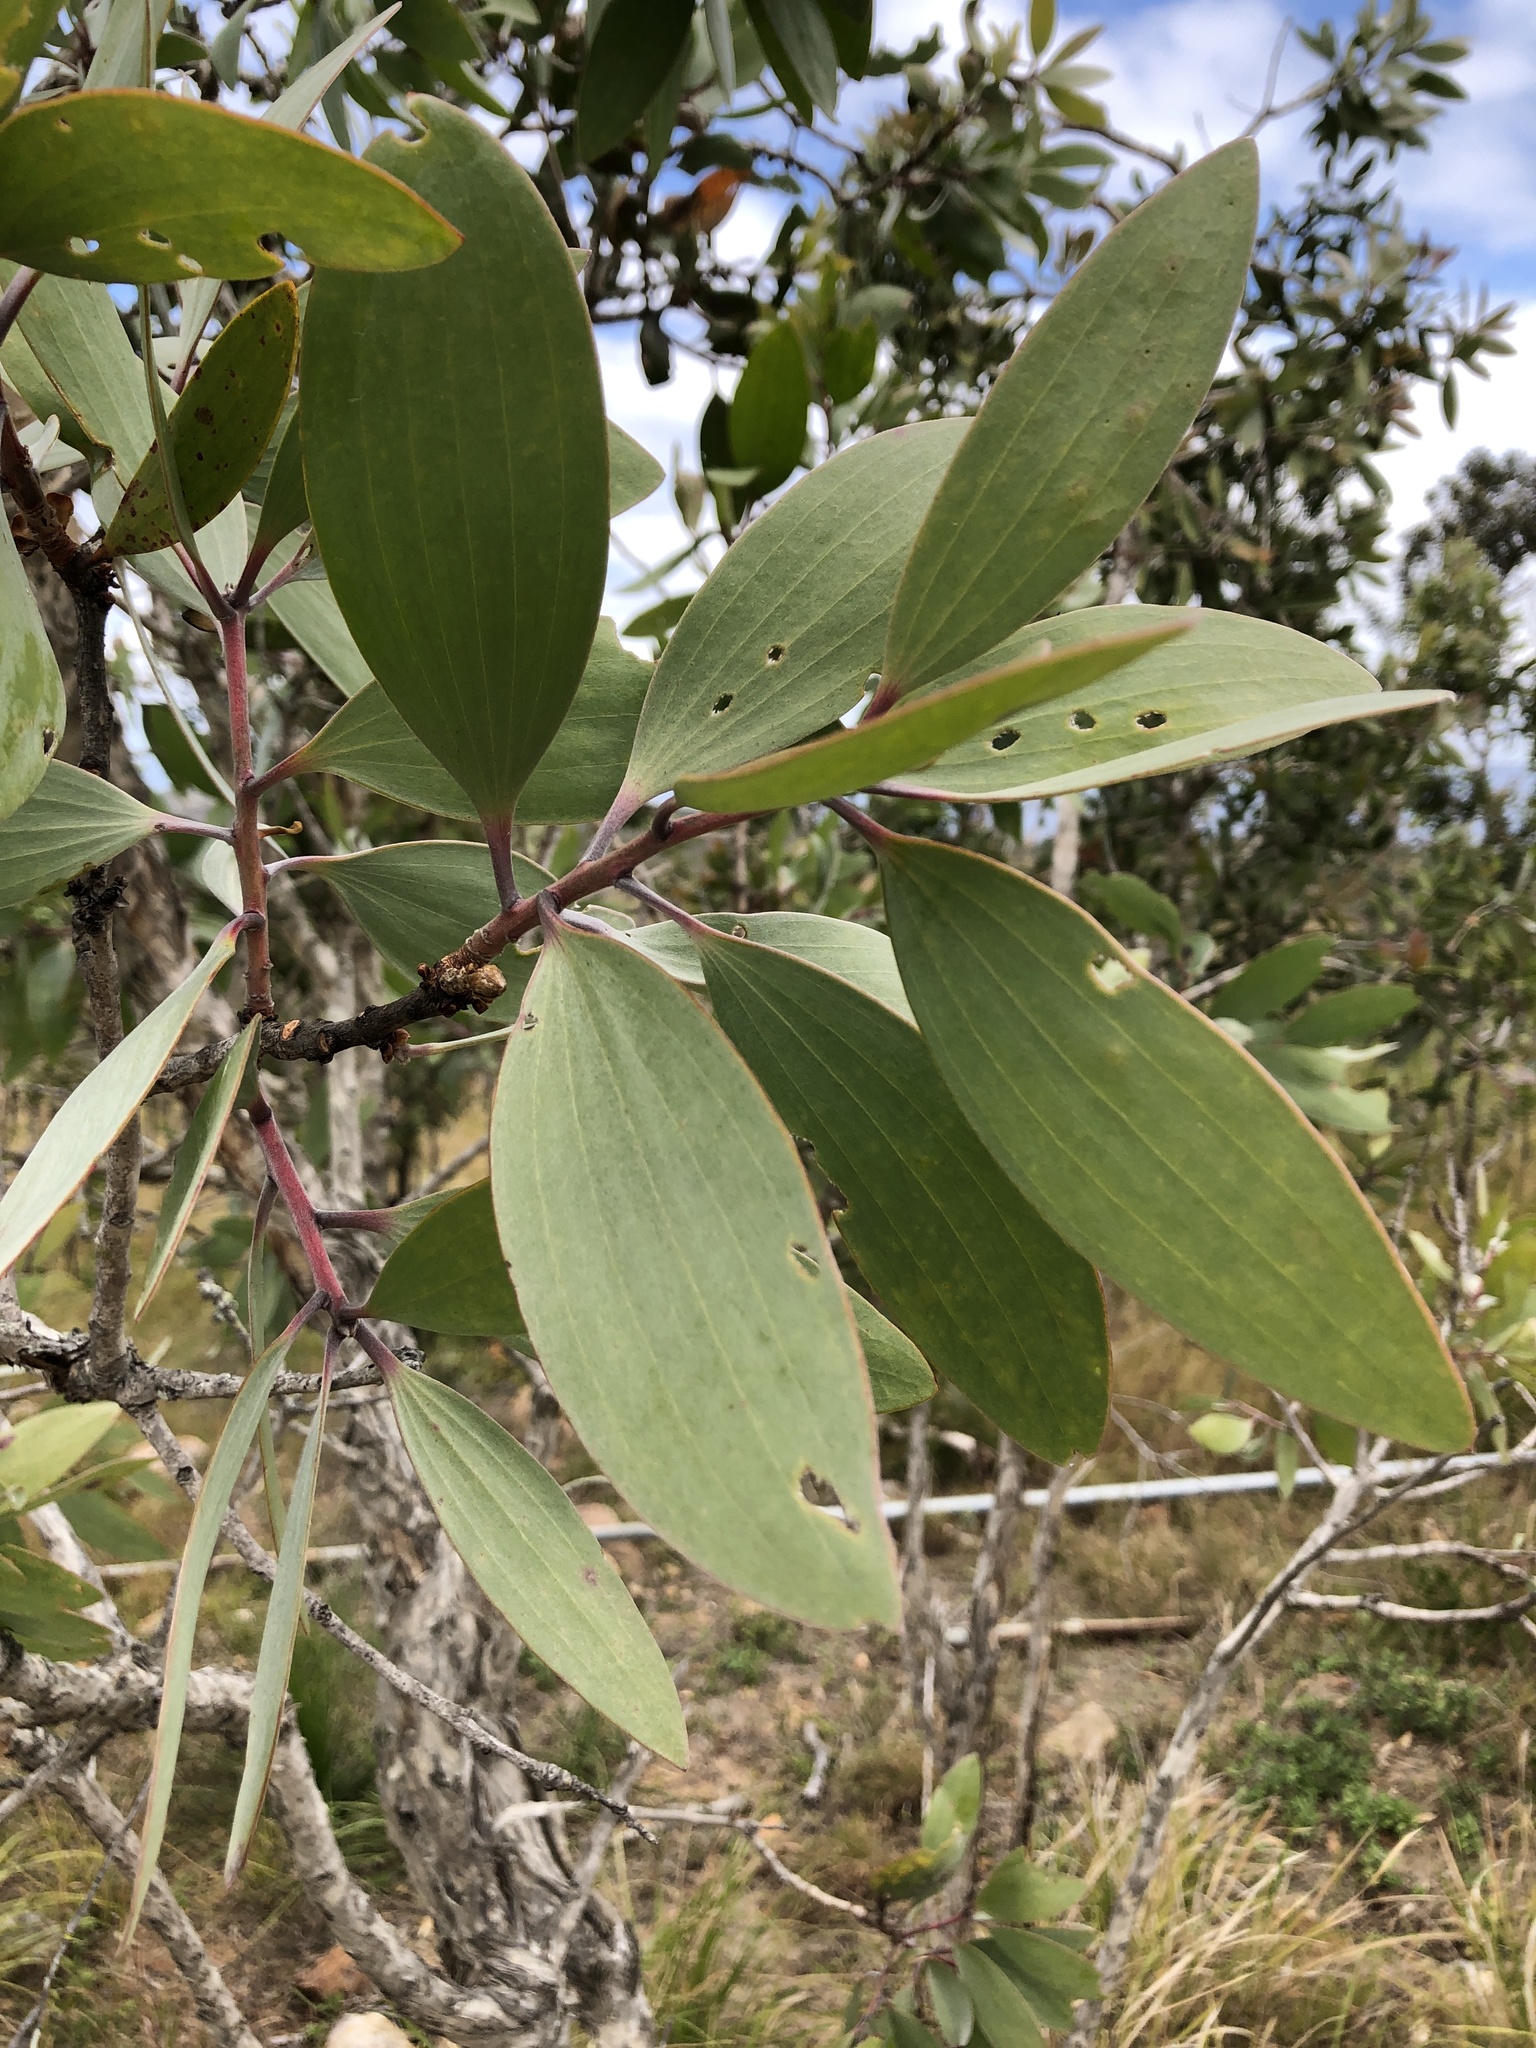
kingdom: Plantae
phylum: Tracheophyta
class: Magnoliopsida
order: Myrtales
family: Myrtaceae
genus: Melaleuca
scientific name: Melaleuca viridiflora
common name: Brown-leaved paperbark
